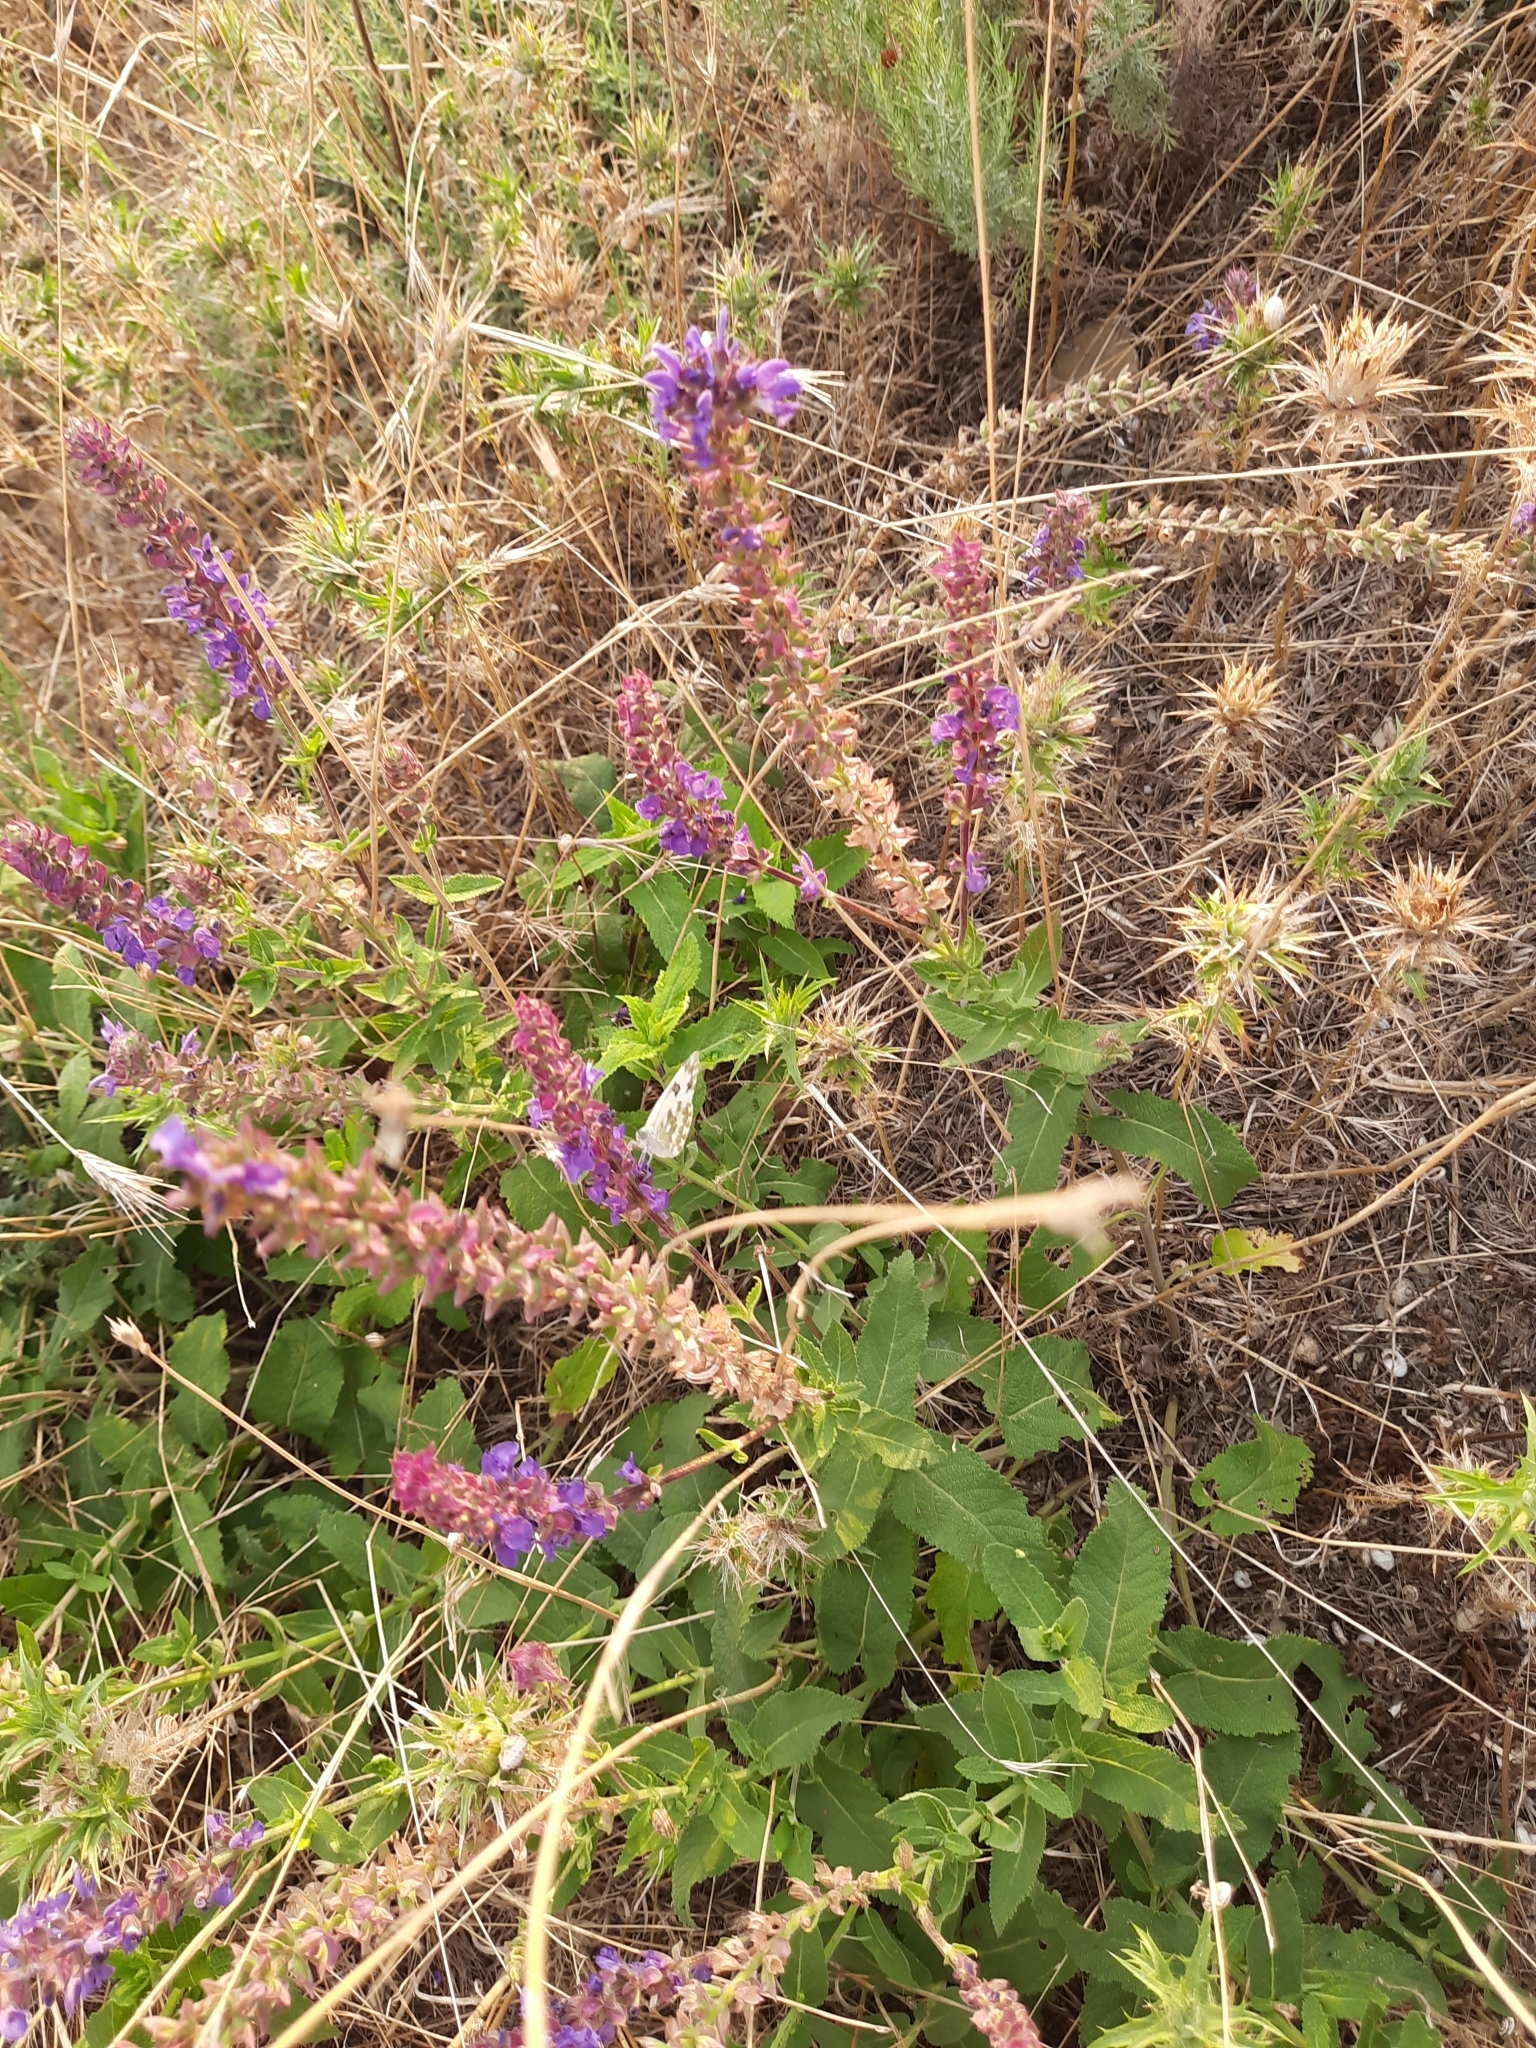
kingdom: Plantae
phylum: Tracheophyta
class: Magnoliopsida
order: Lamiales
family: Lamiaceae
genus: Salvia
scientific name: Salvia nemorosa
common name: Balkan clary
